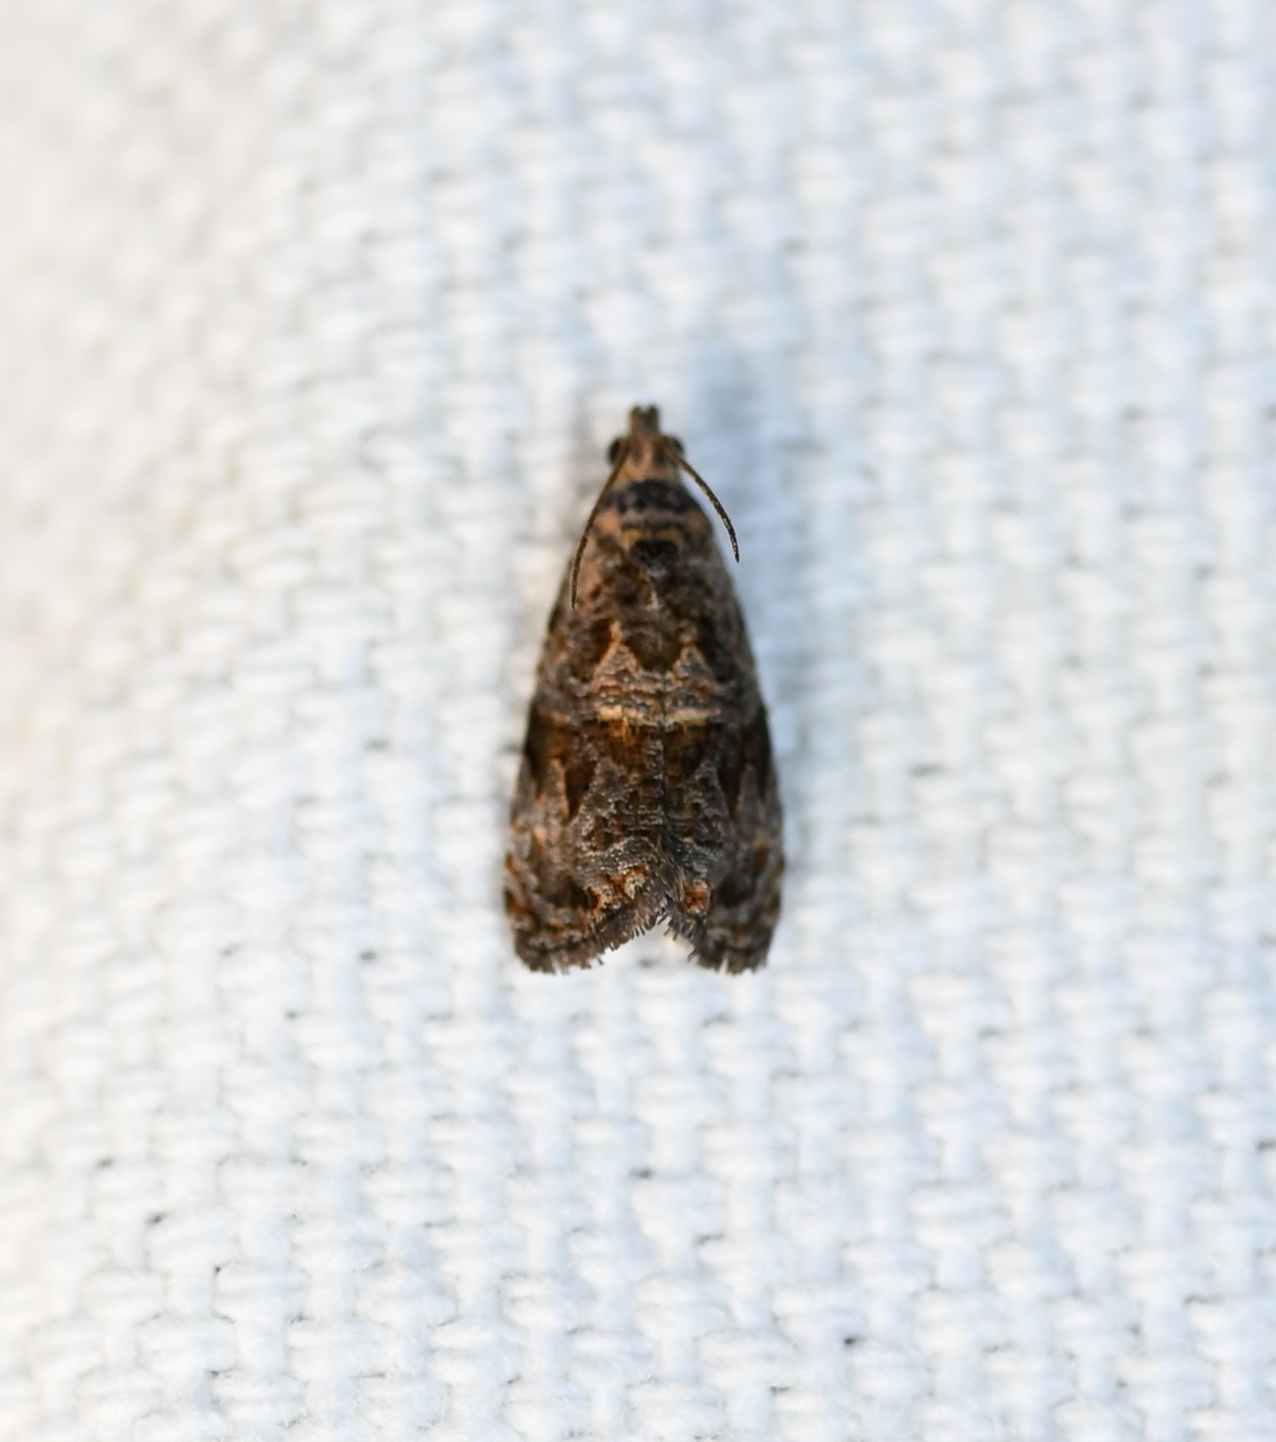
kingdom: Animalia
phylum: Arthropoda
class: Insecta
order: Lepidoptera
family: Tortricidae
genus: Endothenia
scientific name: Endothenia hebesana
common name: Verbena bud moth
